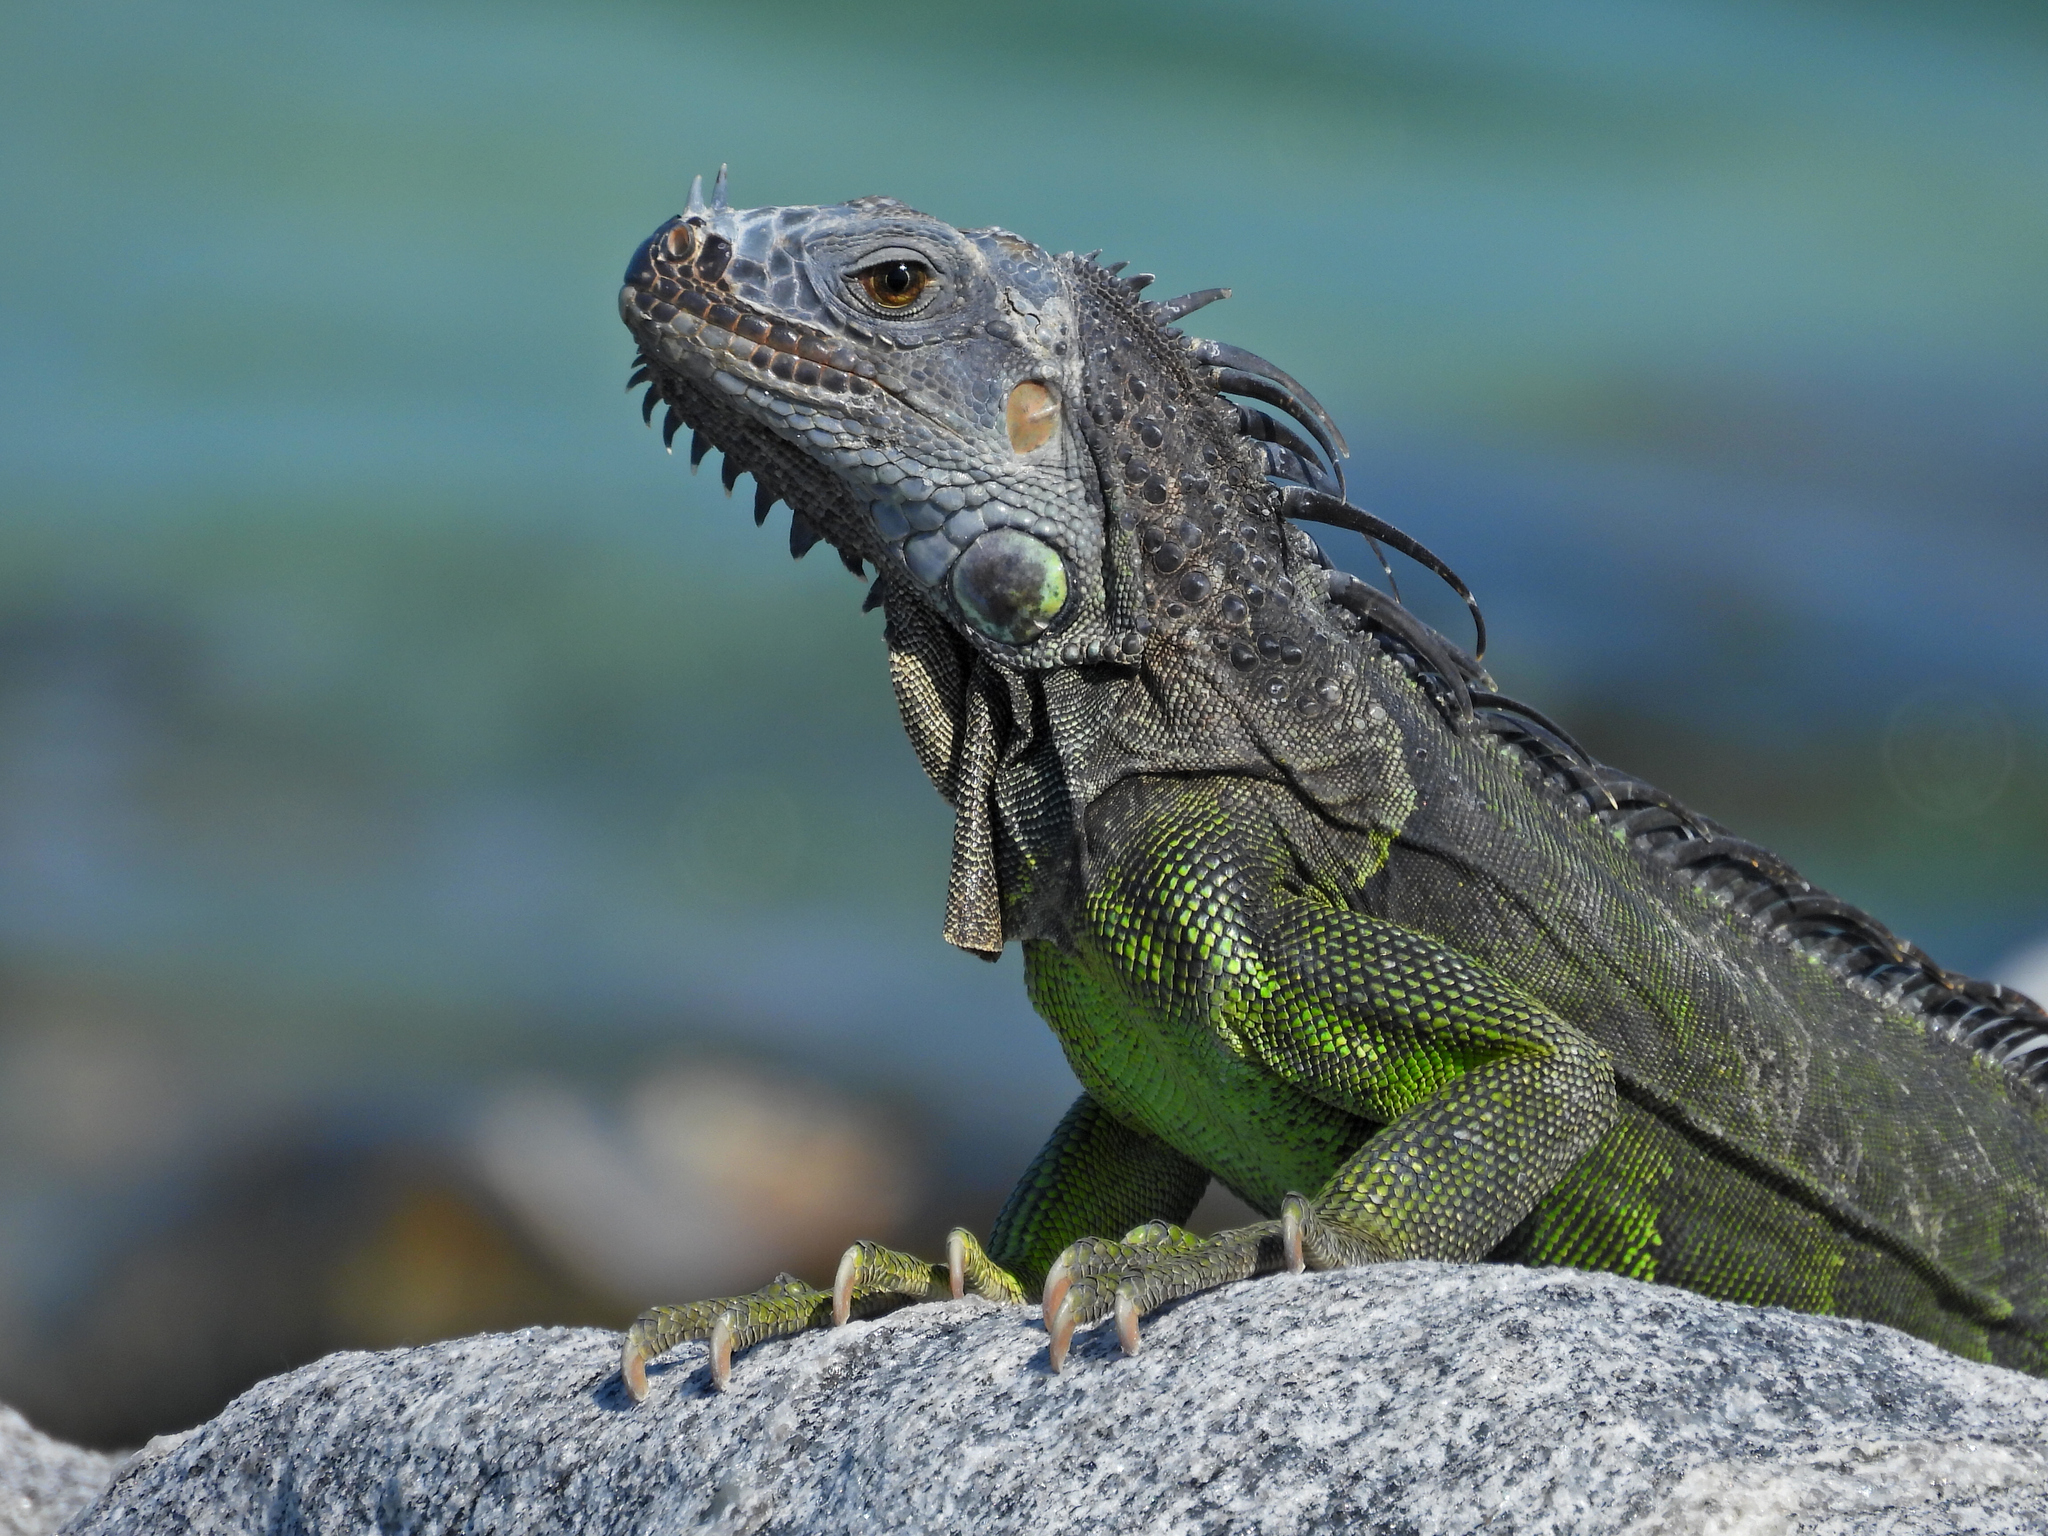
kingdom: Animalia
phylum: Chordata
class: Squamata
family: Iguanidae
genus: Iguana
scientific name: Iguana iguana
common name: Green iguana
